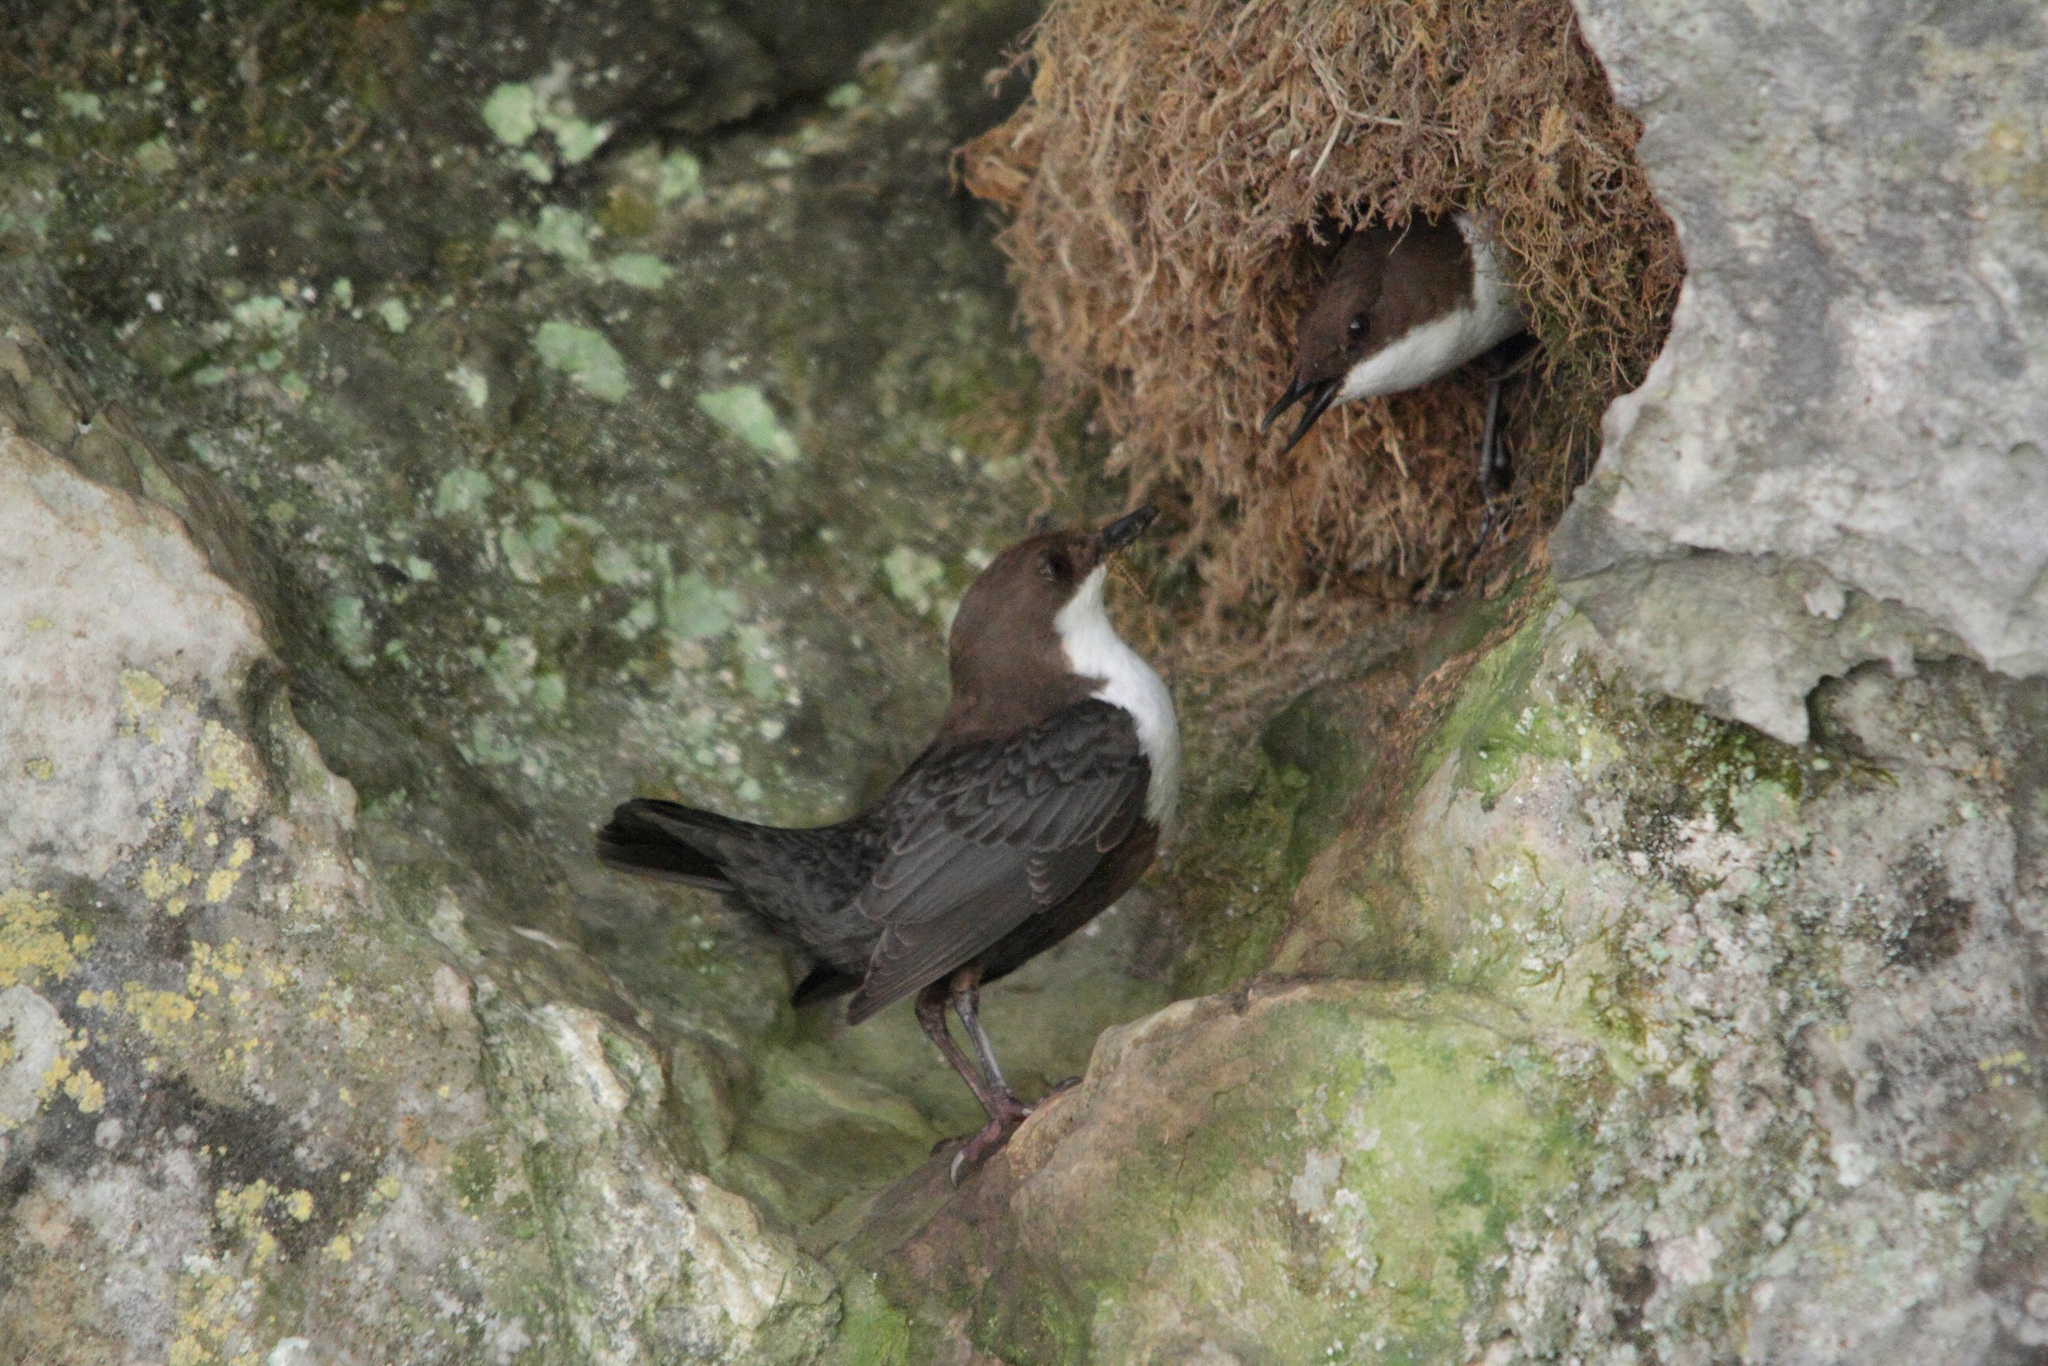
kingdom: Animalia
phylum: Chordata
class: Aves
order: Passeriformes
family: Cinclidae
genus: Cinclus
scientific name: Cinclus cinclus
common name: White-throated dipper
